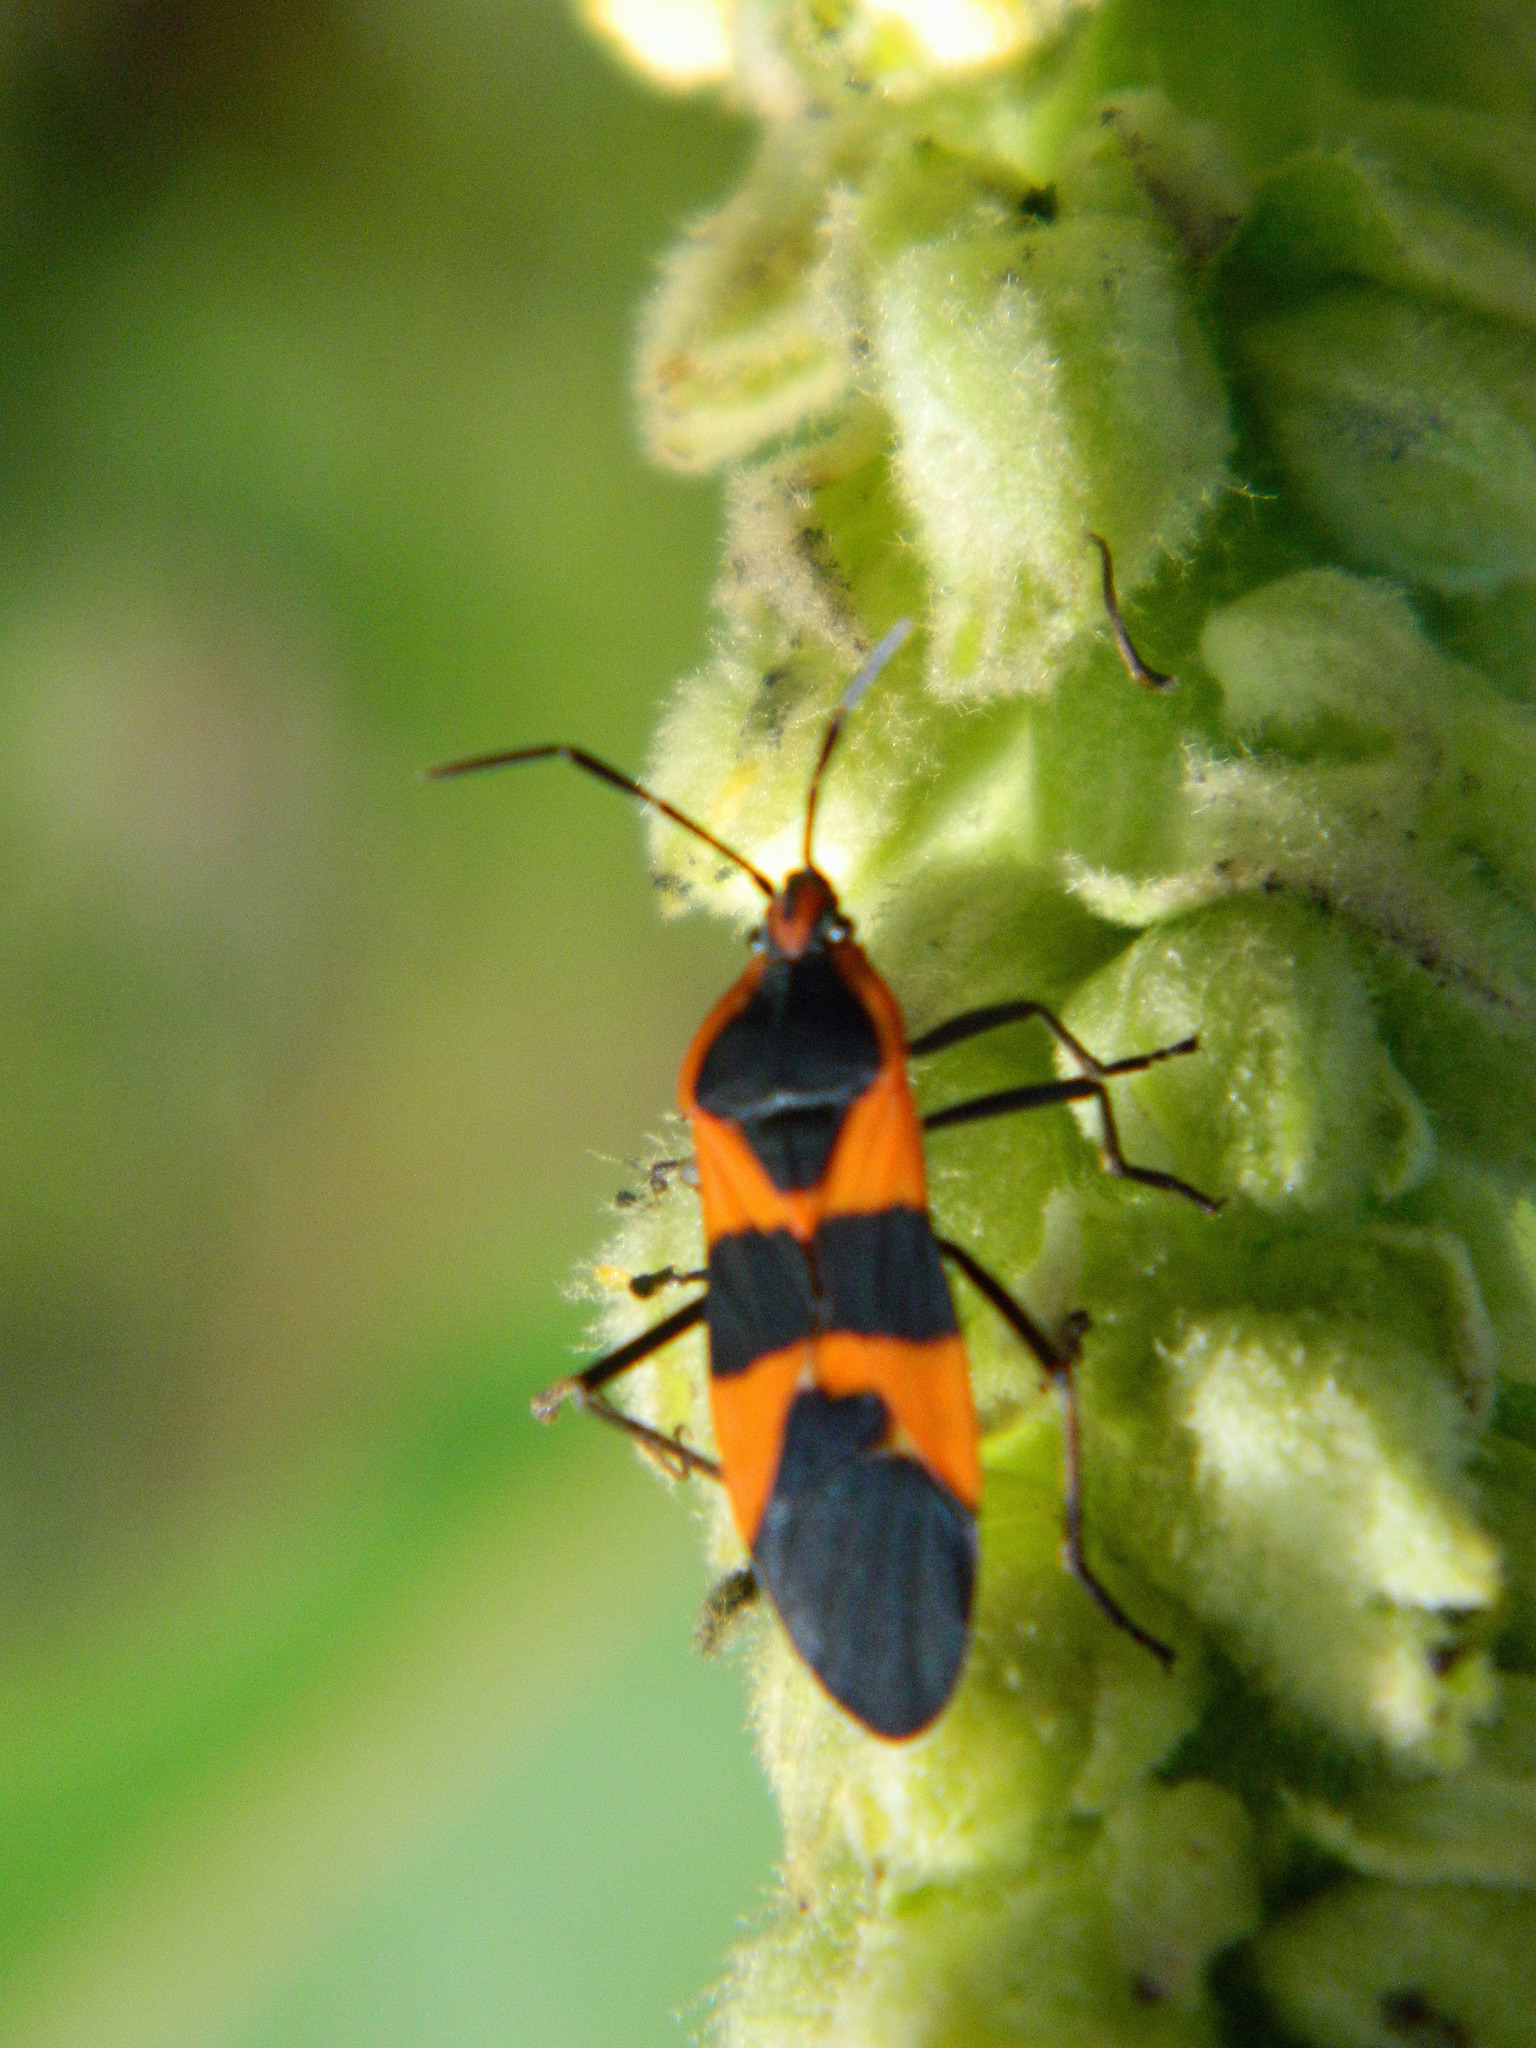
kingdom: Animalia
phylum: Arthropoda
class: Insecta
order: Hemiptera
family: Lygaeidae
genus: Oncopeltus
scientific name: Oncopeltus fasciatus
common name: Large milkweed bug
